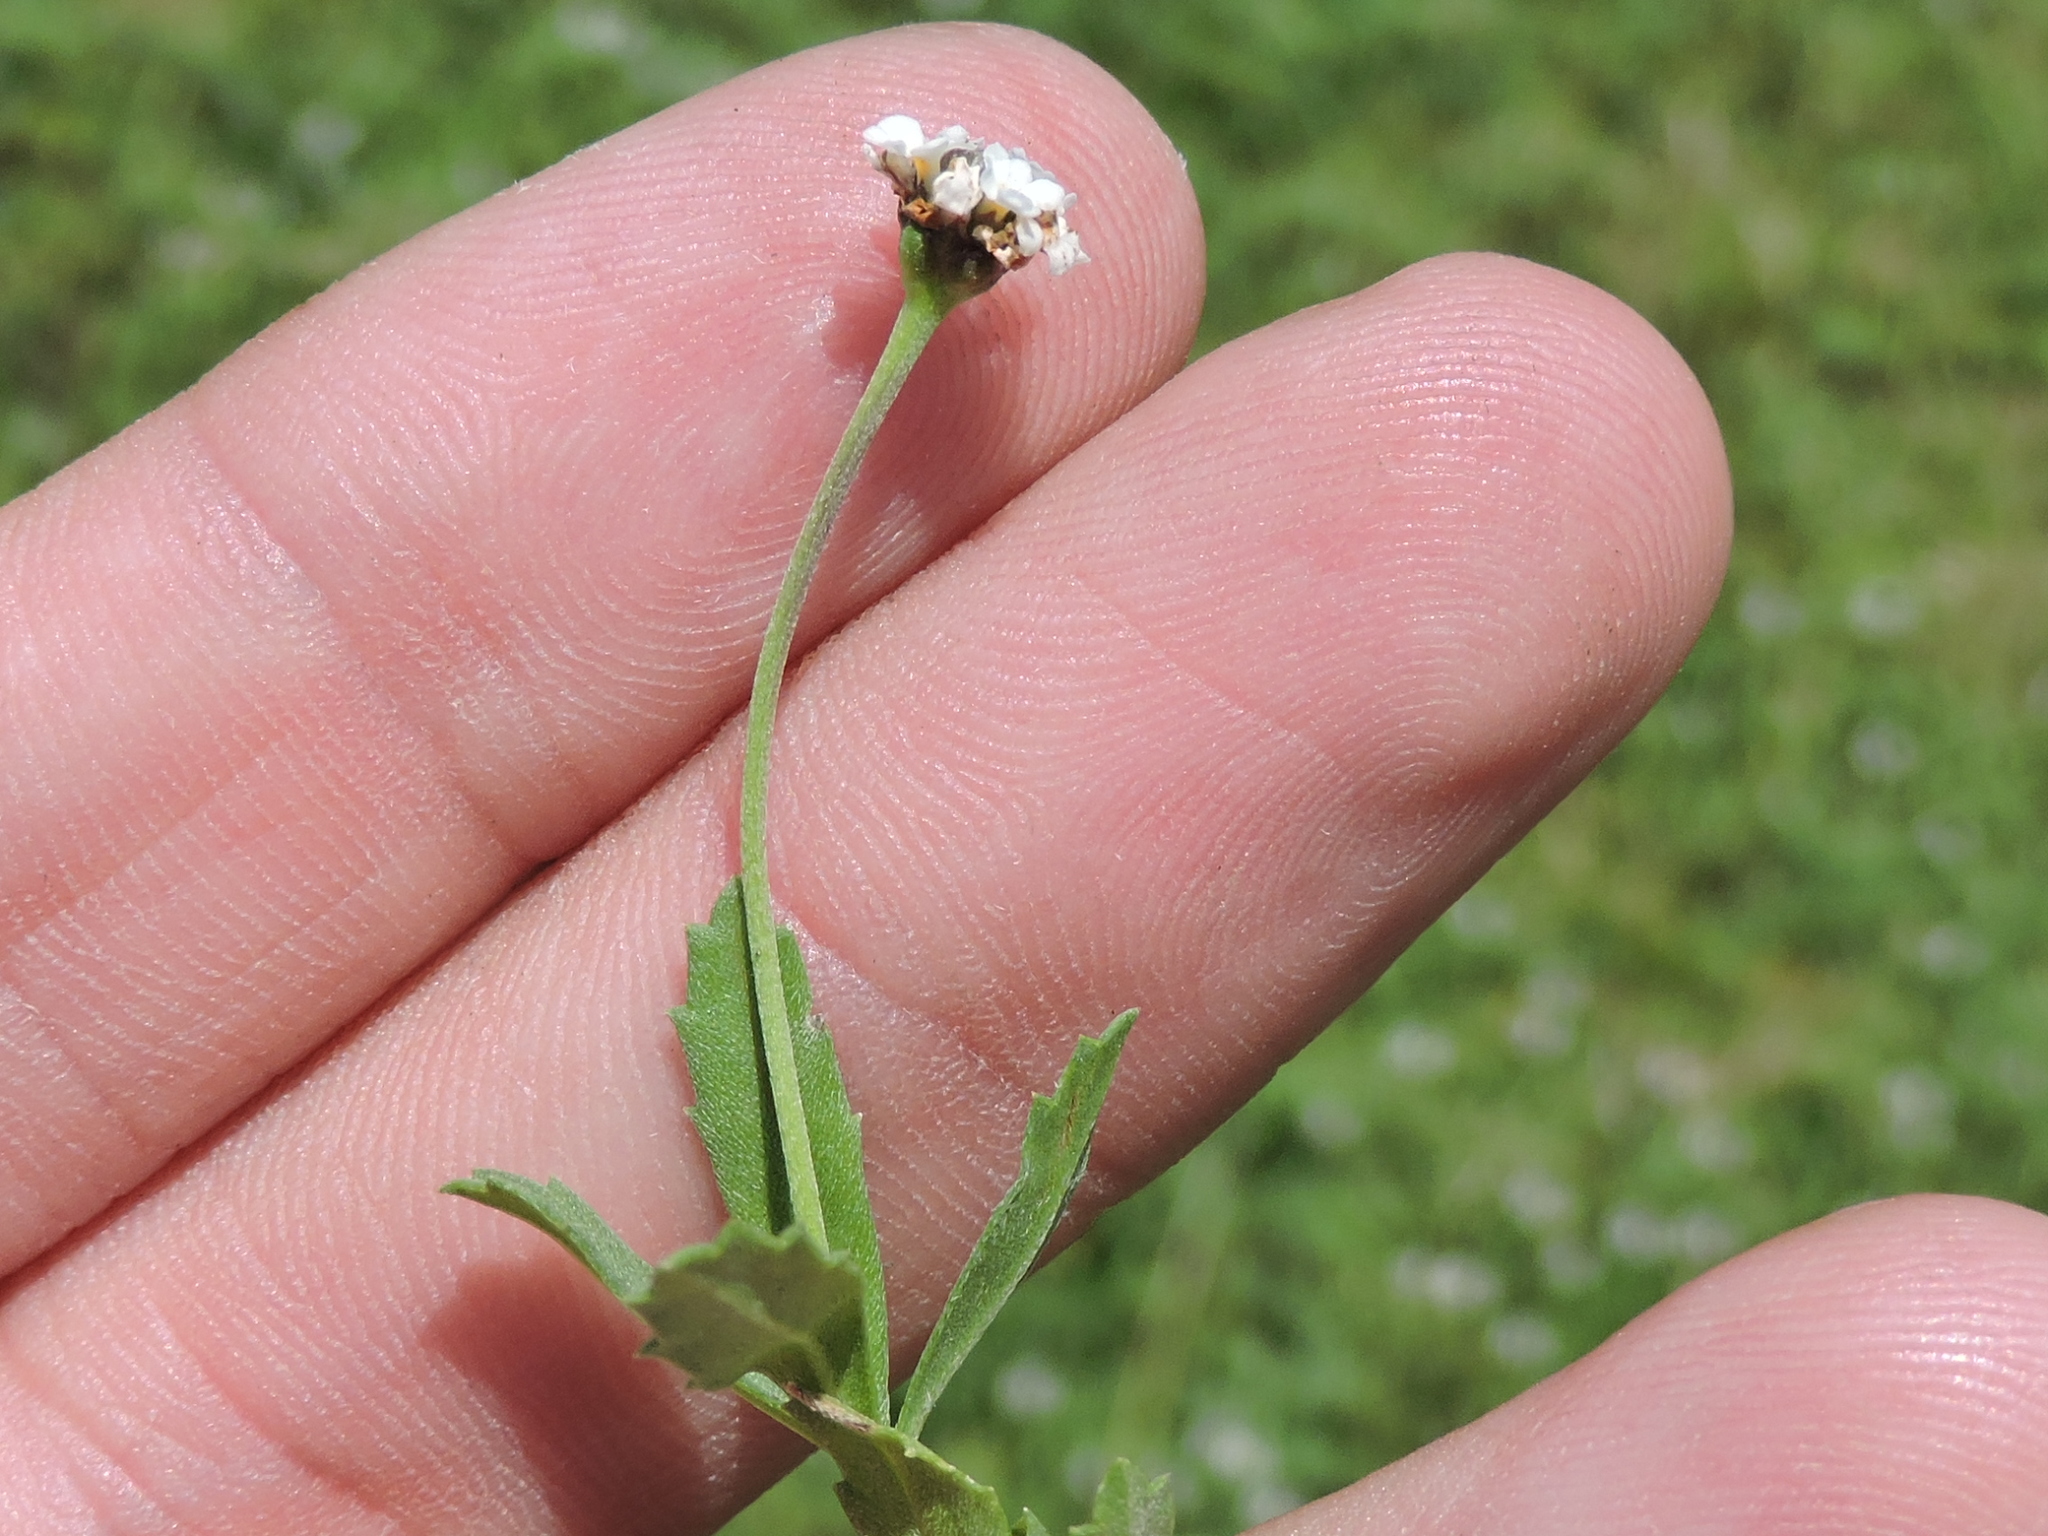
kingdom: Plantae
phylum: Tracheophyta
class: Magnoliopsida
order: Lamiales
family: Verbenaceae
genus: Phyla
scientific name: Phyla nodiflora
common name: Frogfruit
